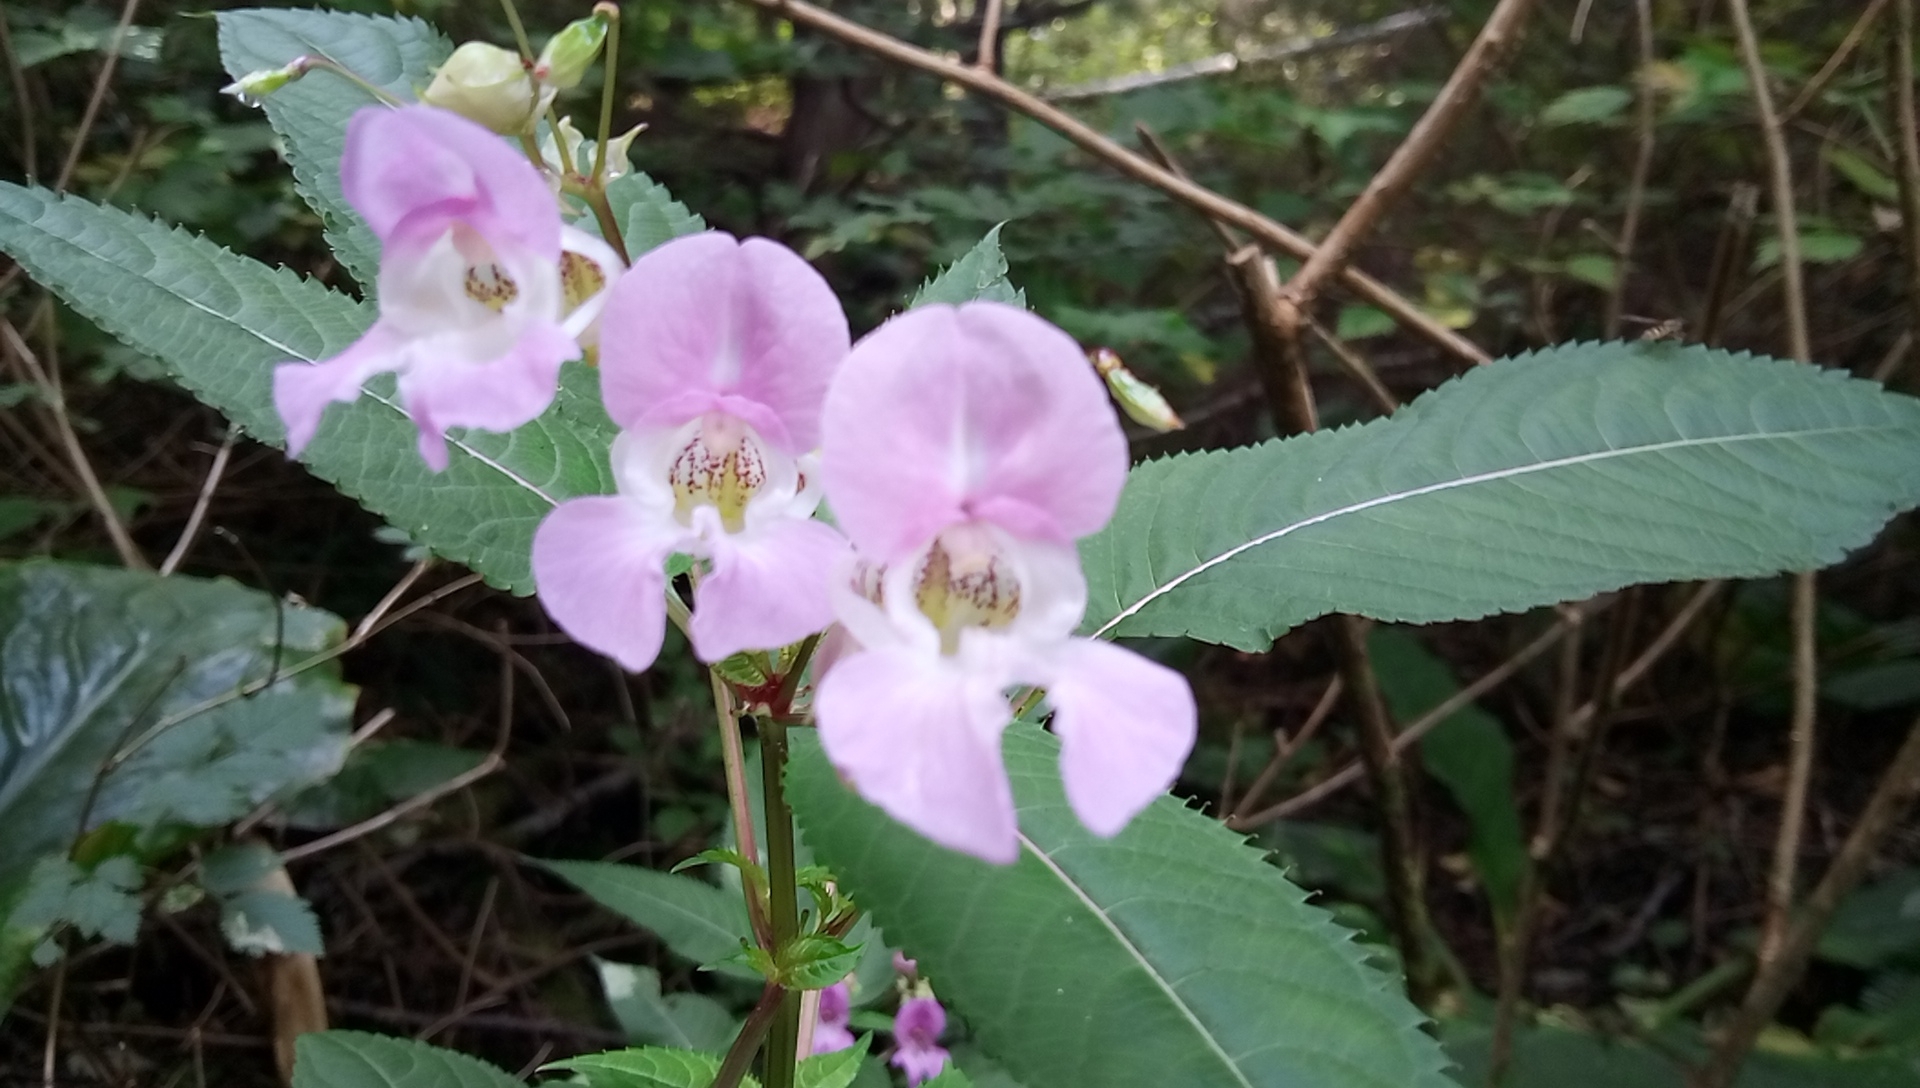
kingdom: Plantae
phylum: Tracheophyta
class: Magnoliopsida
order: Ericales
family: Balsaminaceae
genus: Impatiens
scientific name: Impatiens glandulifera
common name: Himalayan balsam
